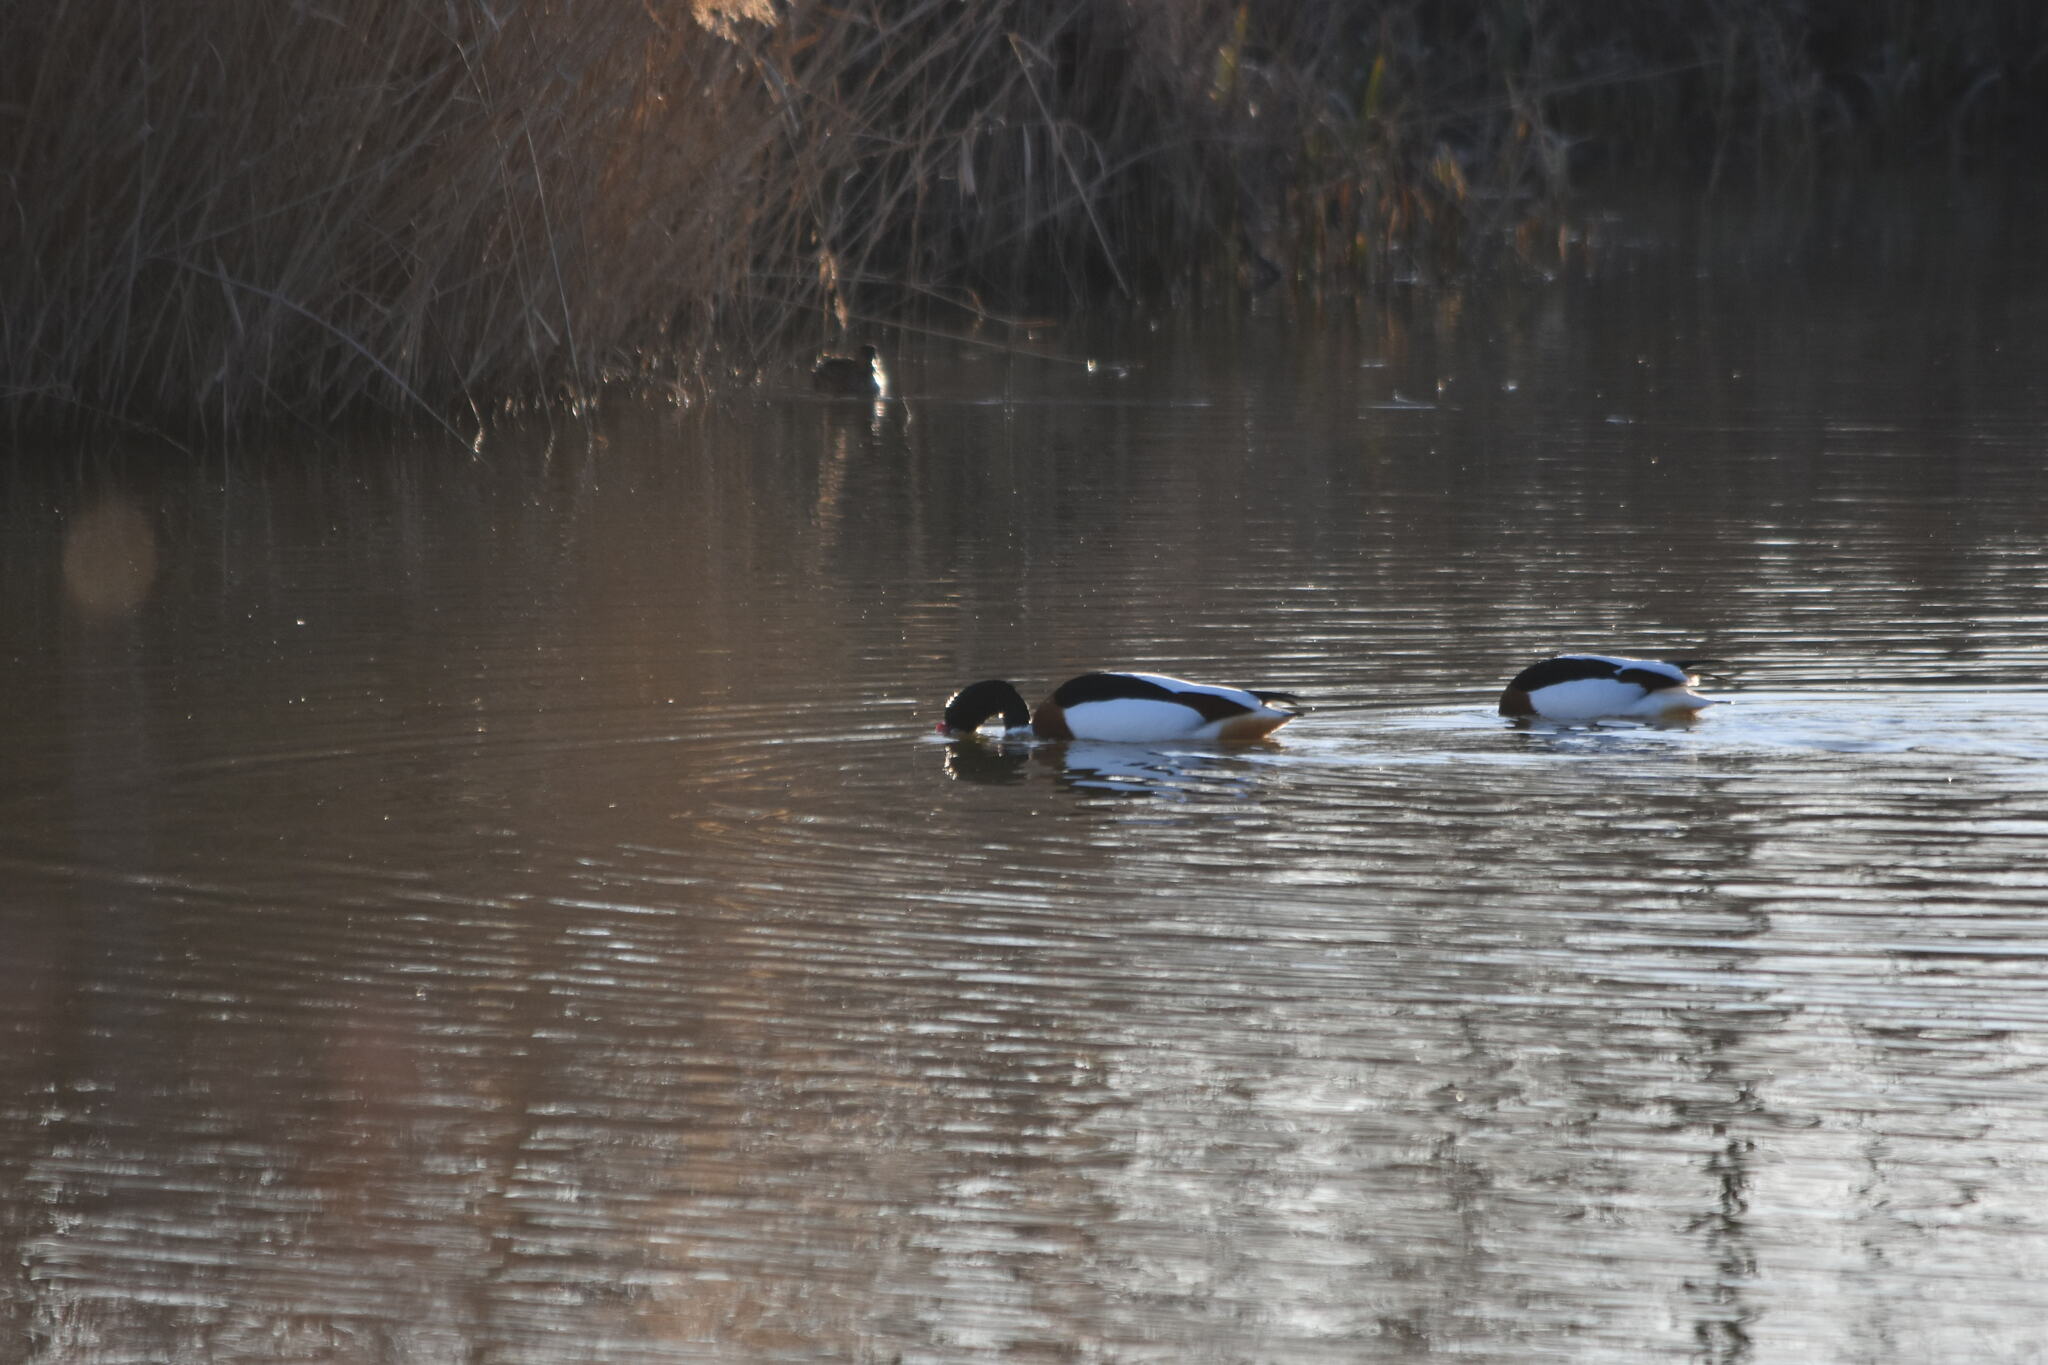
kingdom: Animalia
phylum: Chordata
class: Aves
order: Anseriformes
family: Anatidae
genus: Tadorna
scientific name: Tadorna tadorna
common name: Common shelduck
